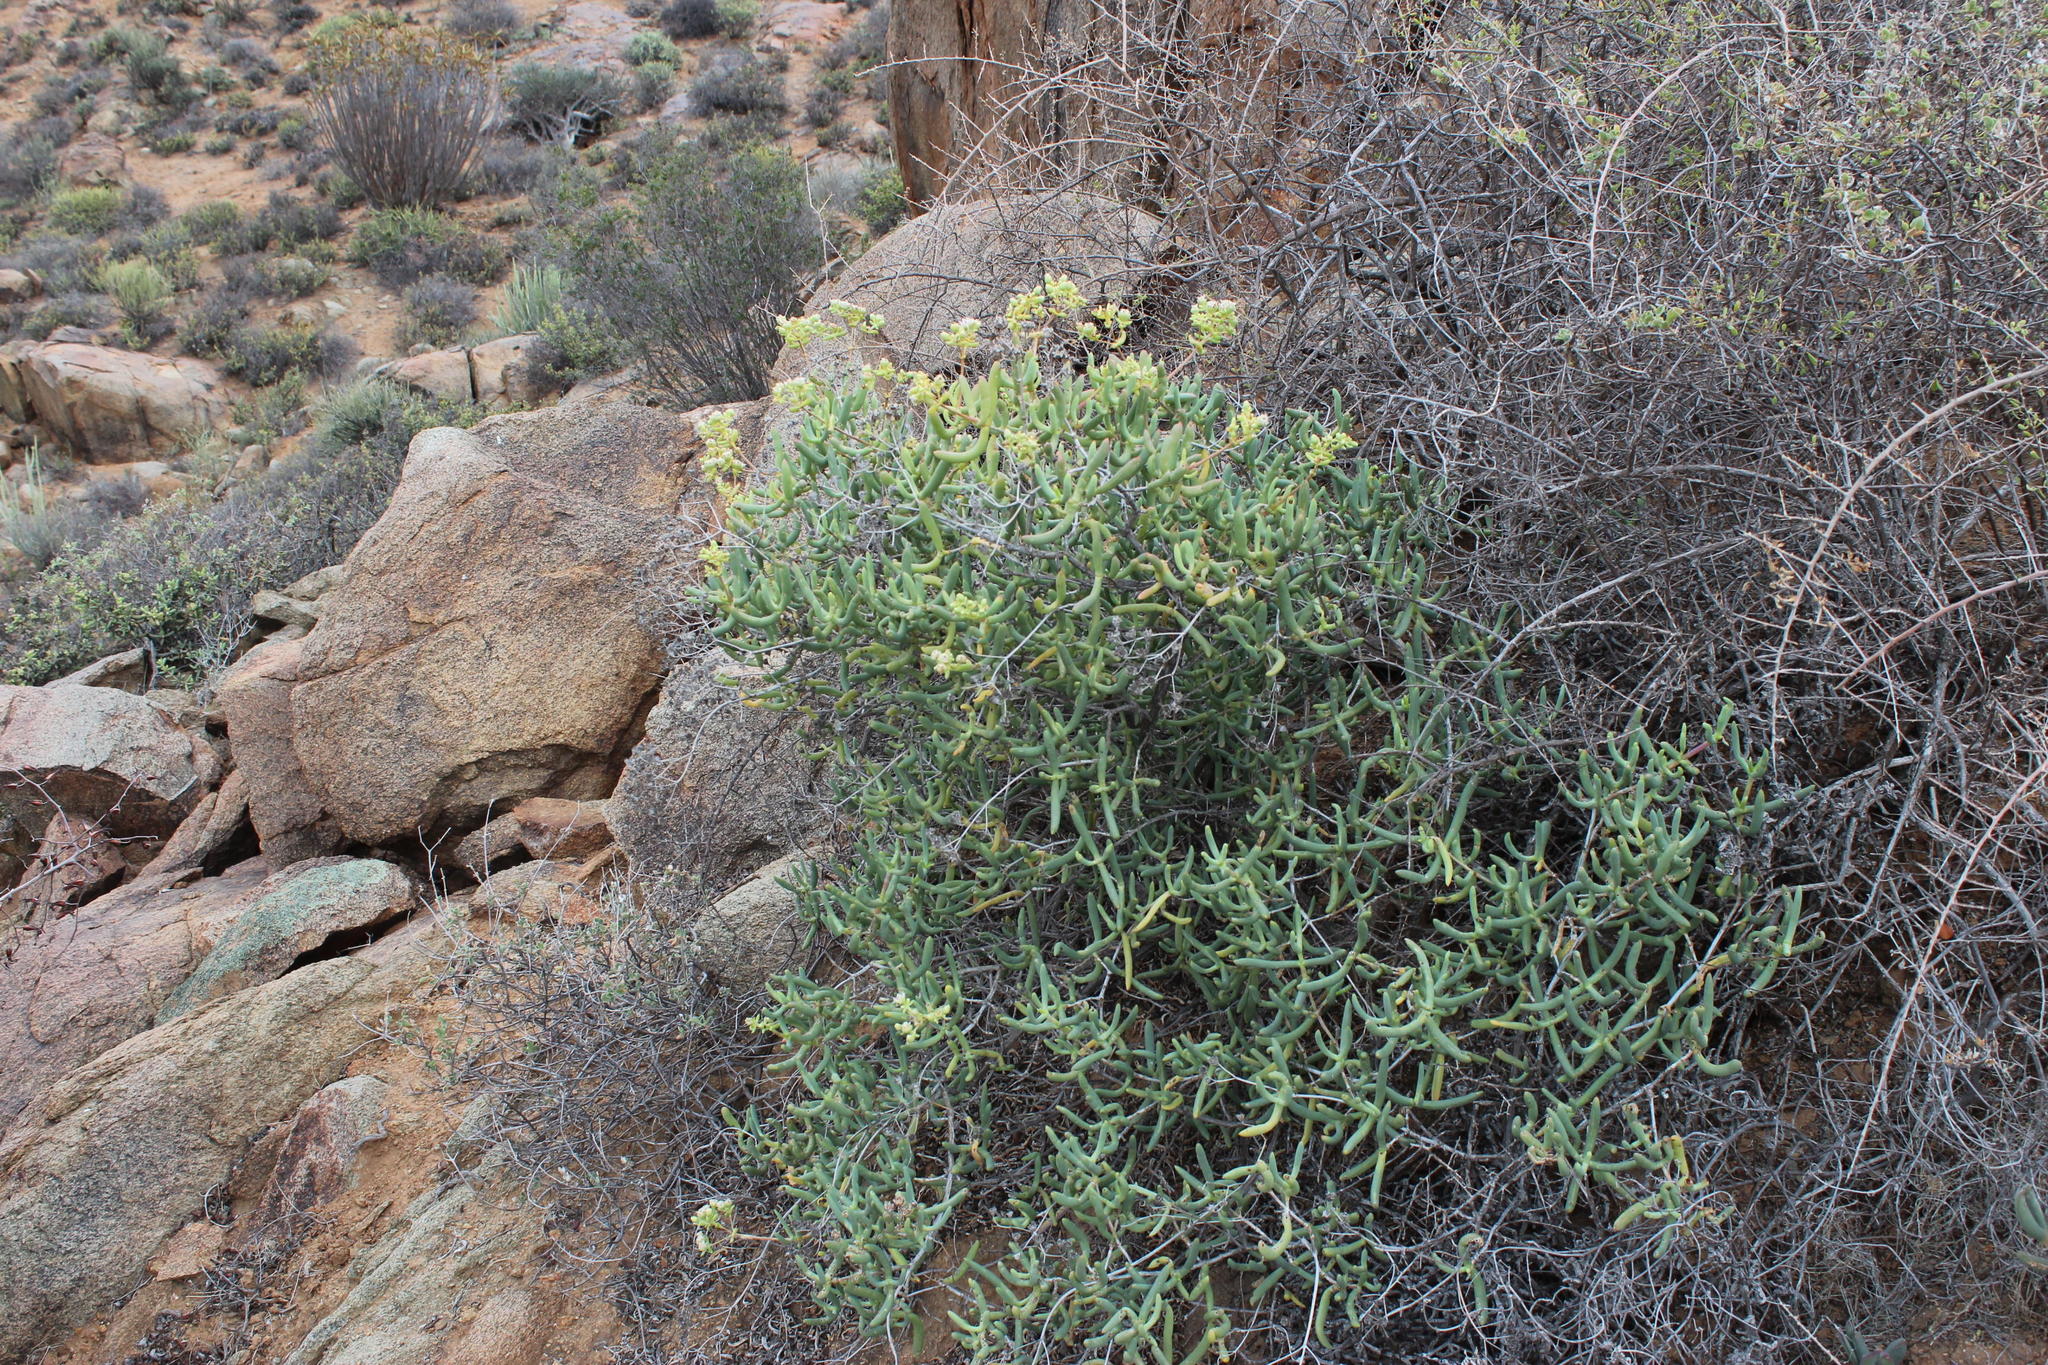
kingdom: Plantae
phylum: Tracheophyta
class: Magnoliopsida
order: Caryophyllales
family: Aizoaceae
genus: Stoeberia
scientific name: Stoeberia frutescens
